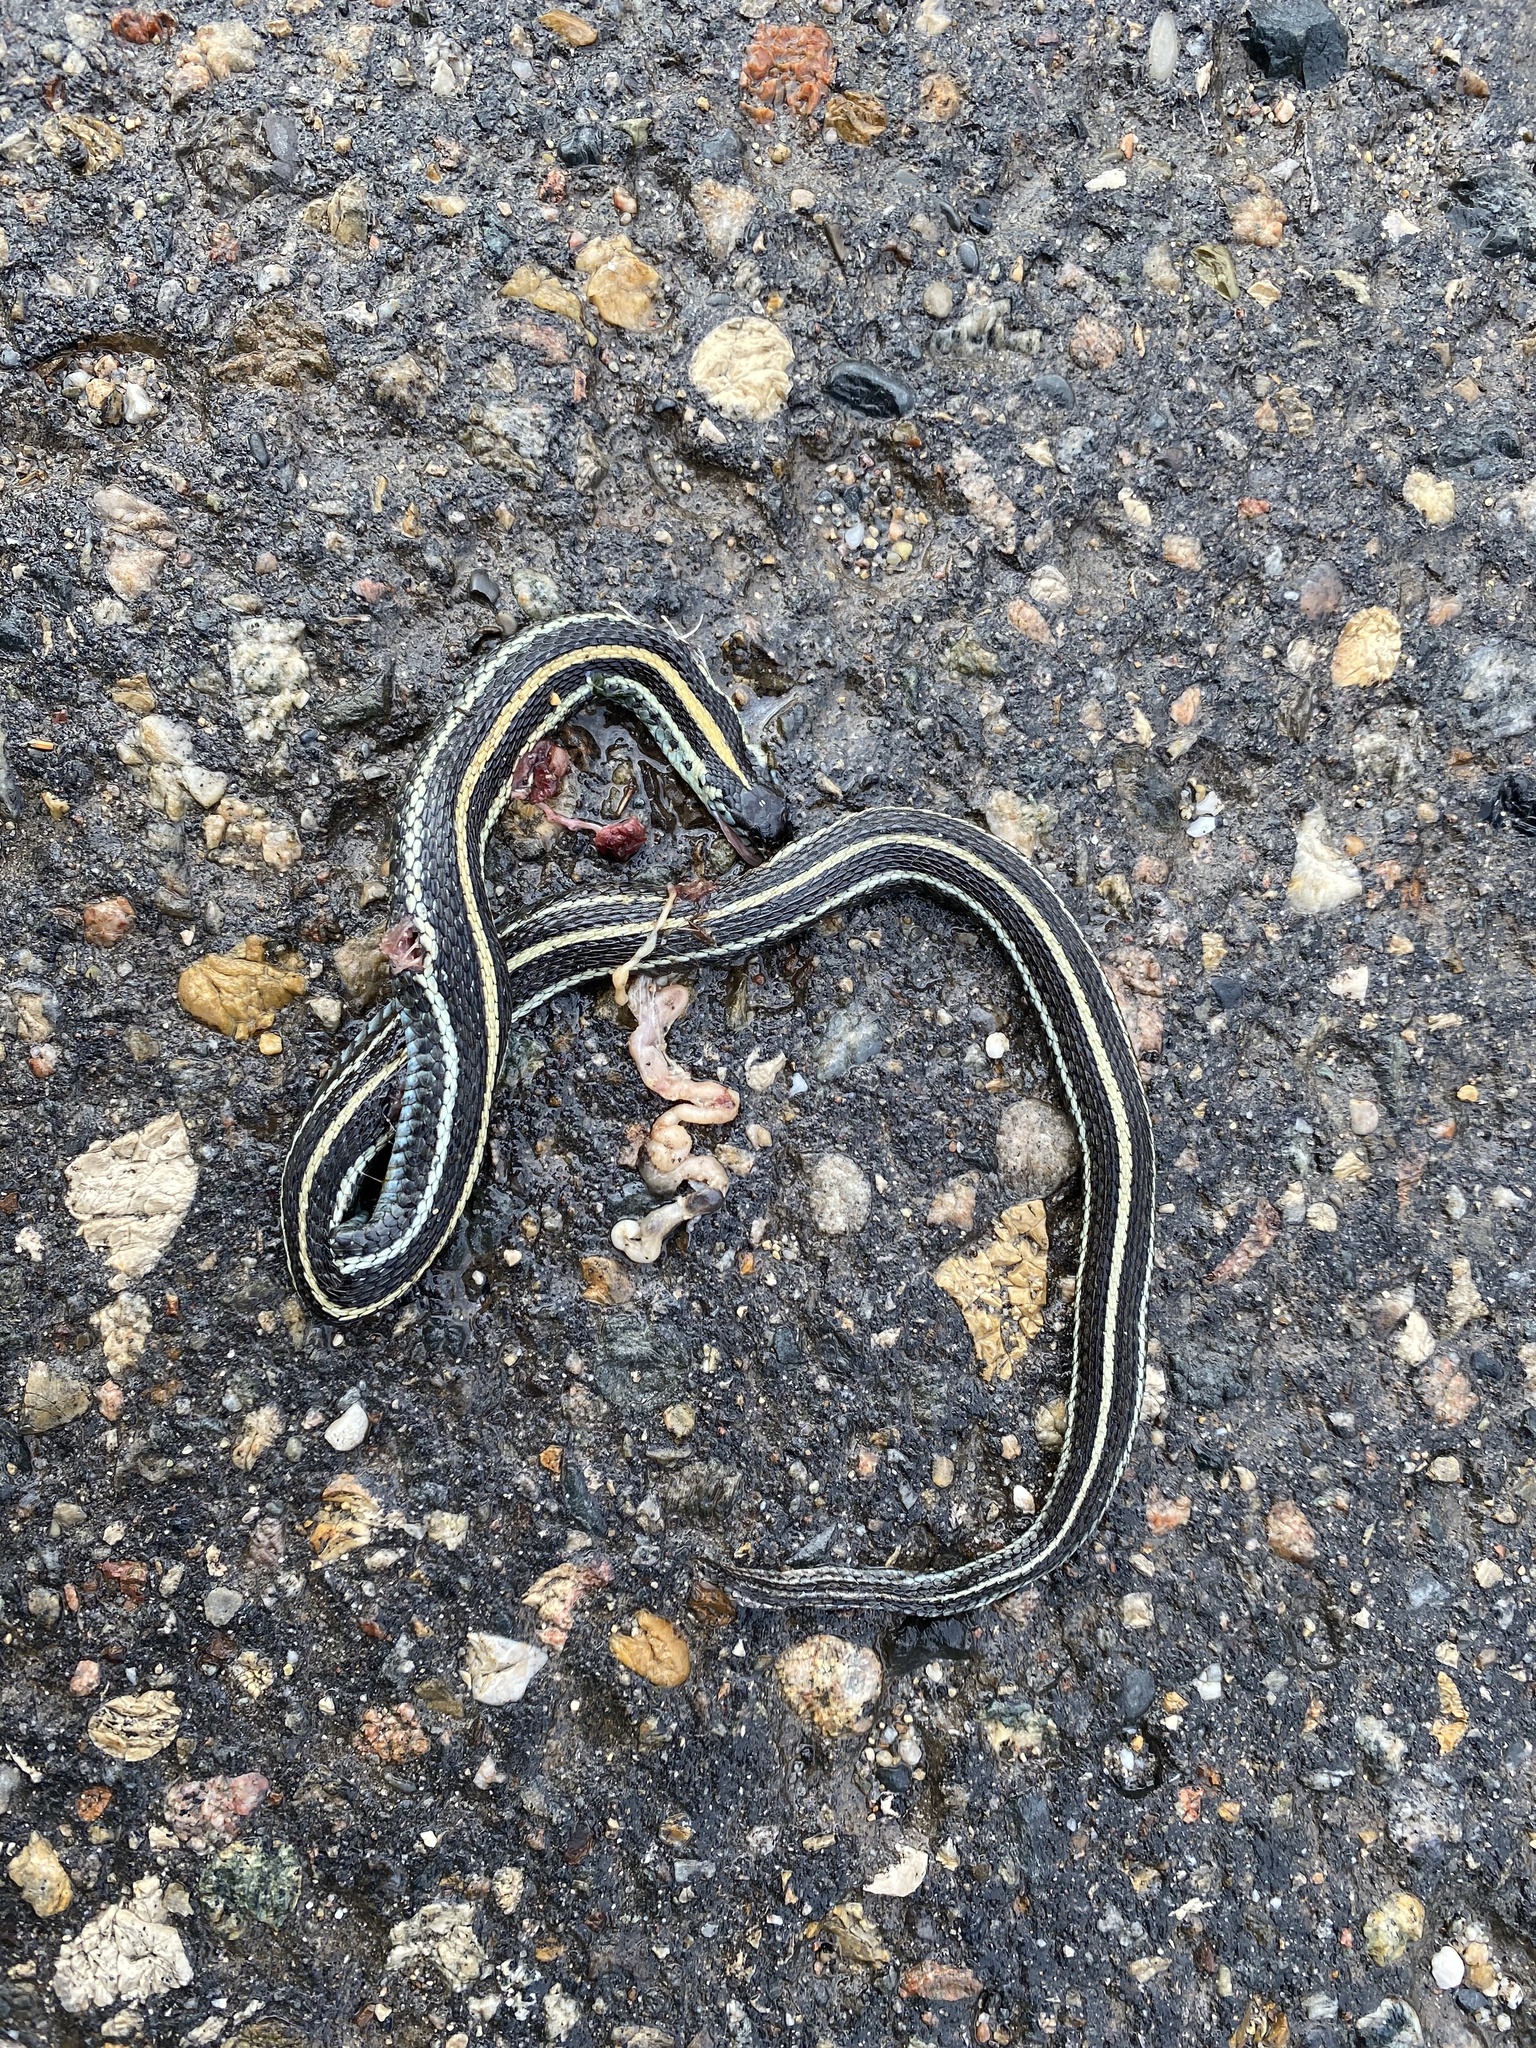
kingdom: Animalia
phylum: Chordata
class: Squamata
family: Colubridae
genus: Thamnophis
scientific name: Thamnophis radix
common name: Plains garter snake
